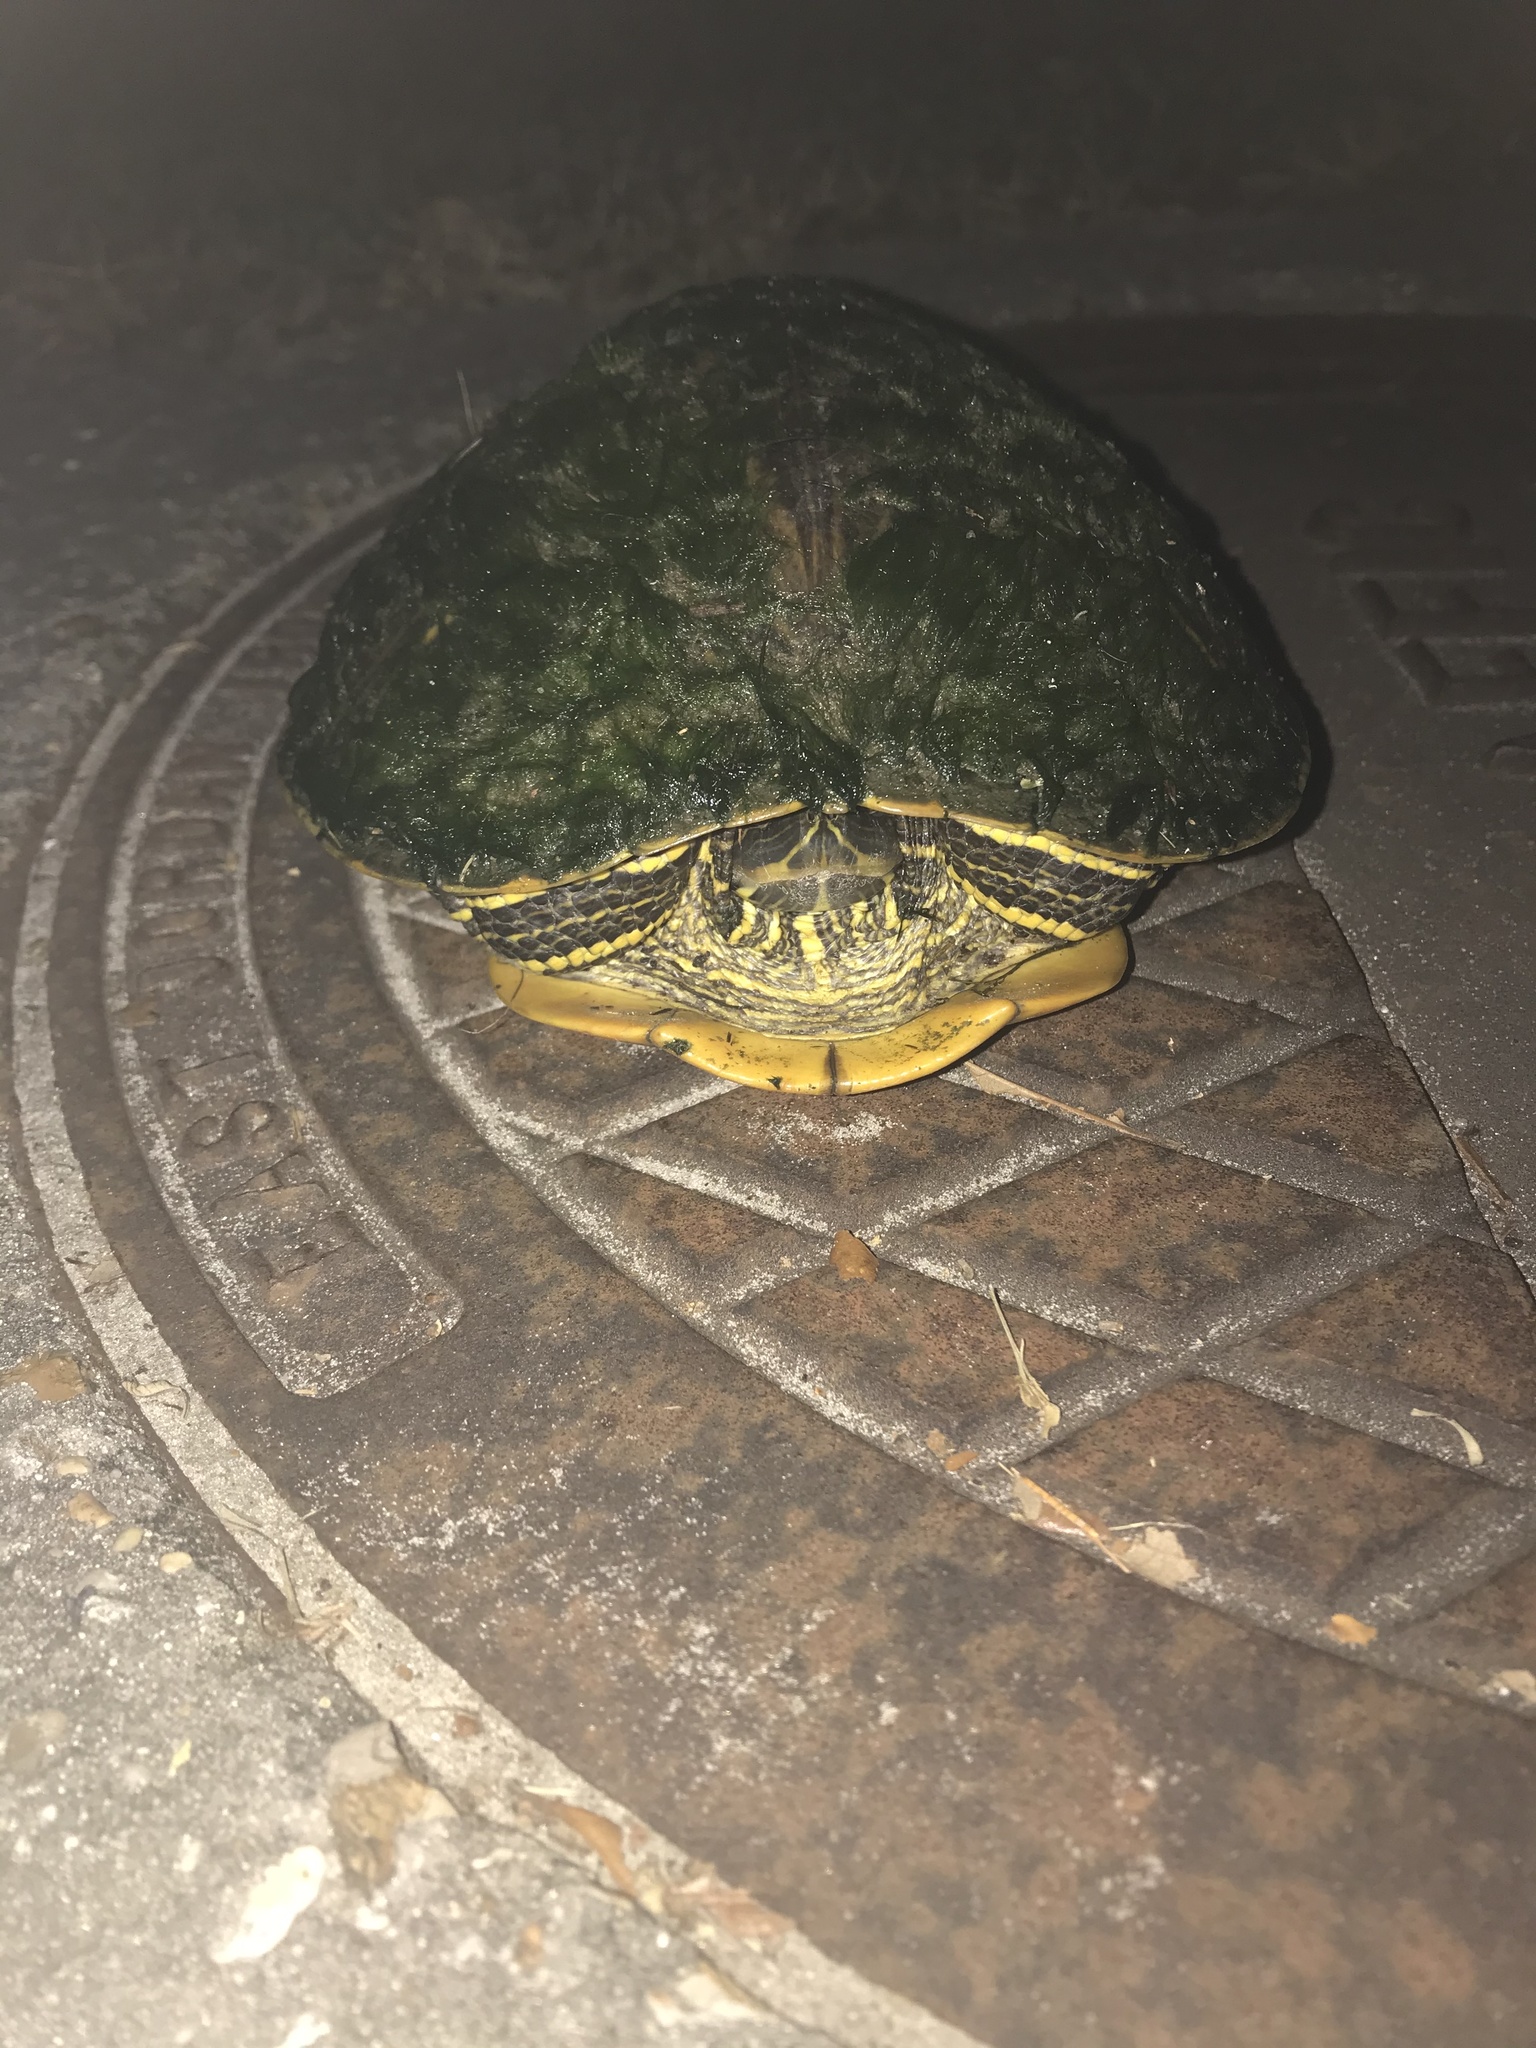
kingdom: Animalia
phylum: Chordata
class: Testudines
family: Emydidae
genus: Trachemys
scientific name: Trachemys scripta
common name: Slider
